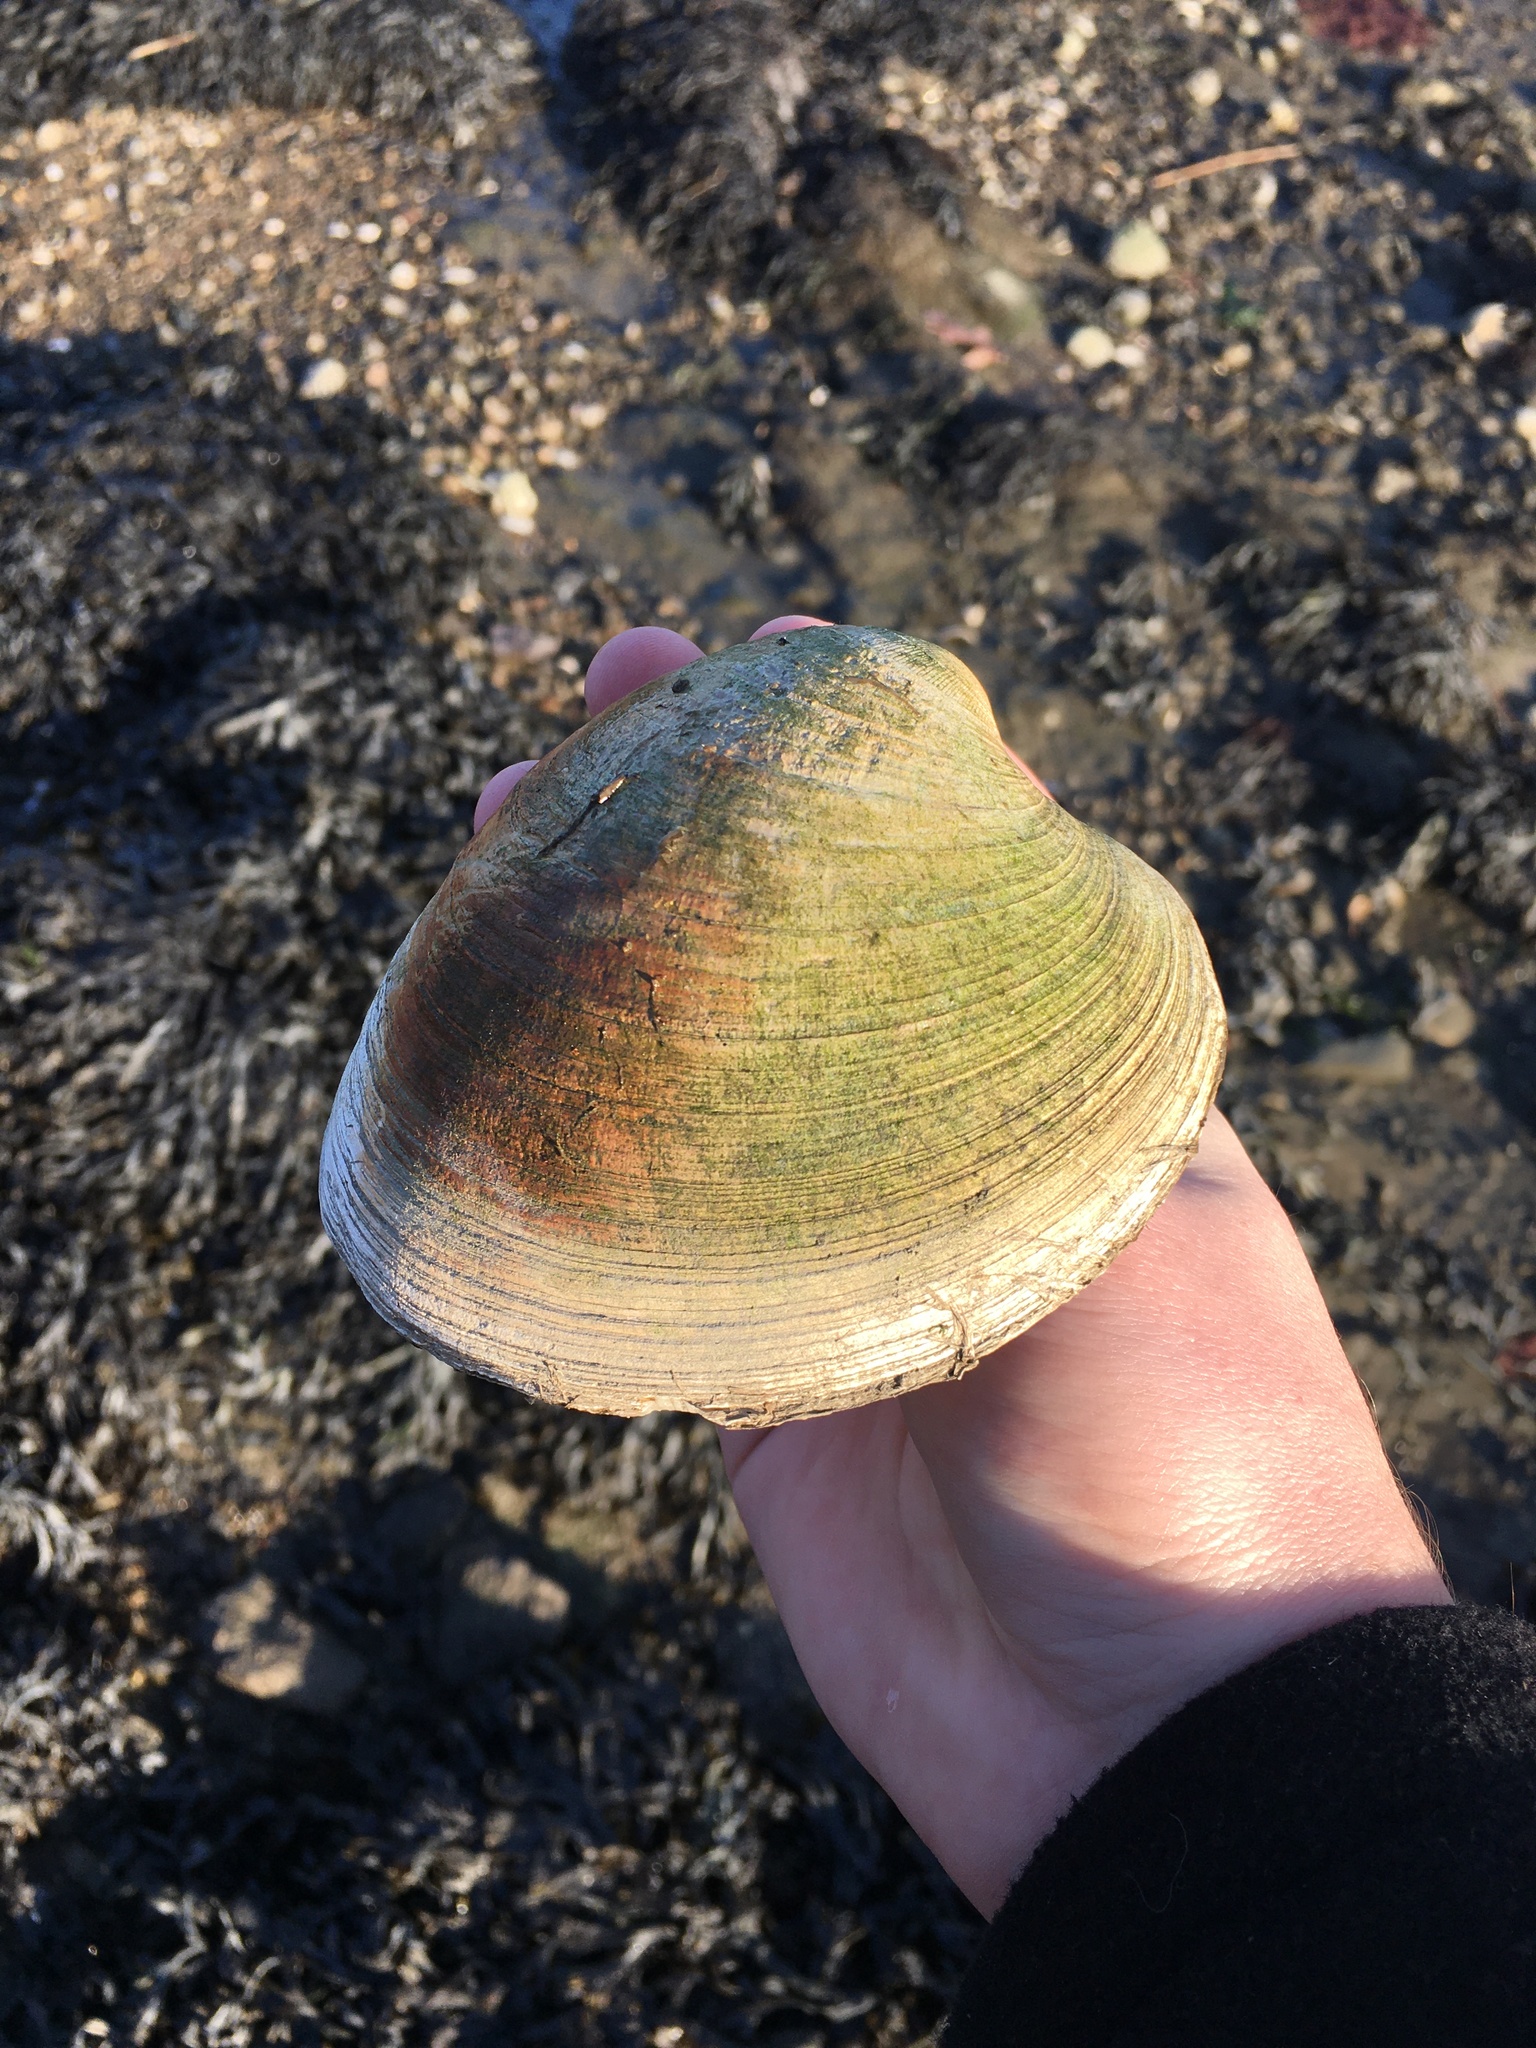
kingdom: Animalia
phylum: Mollusca
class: Bivalvia
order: Venerida
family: Veneridae
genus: Mercenaria
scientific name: Mercenaria mercenaria
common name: American hard-shelled clam
